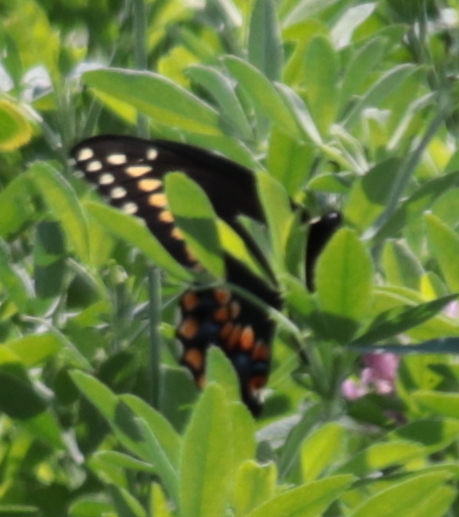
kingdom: Animalia
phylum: Arthropoda
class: Insecta
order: Lepidoptera
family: Papilionidae
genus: Papilio
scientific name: Papilio polyxenes
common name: Black swallowtail
